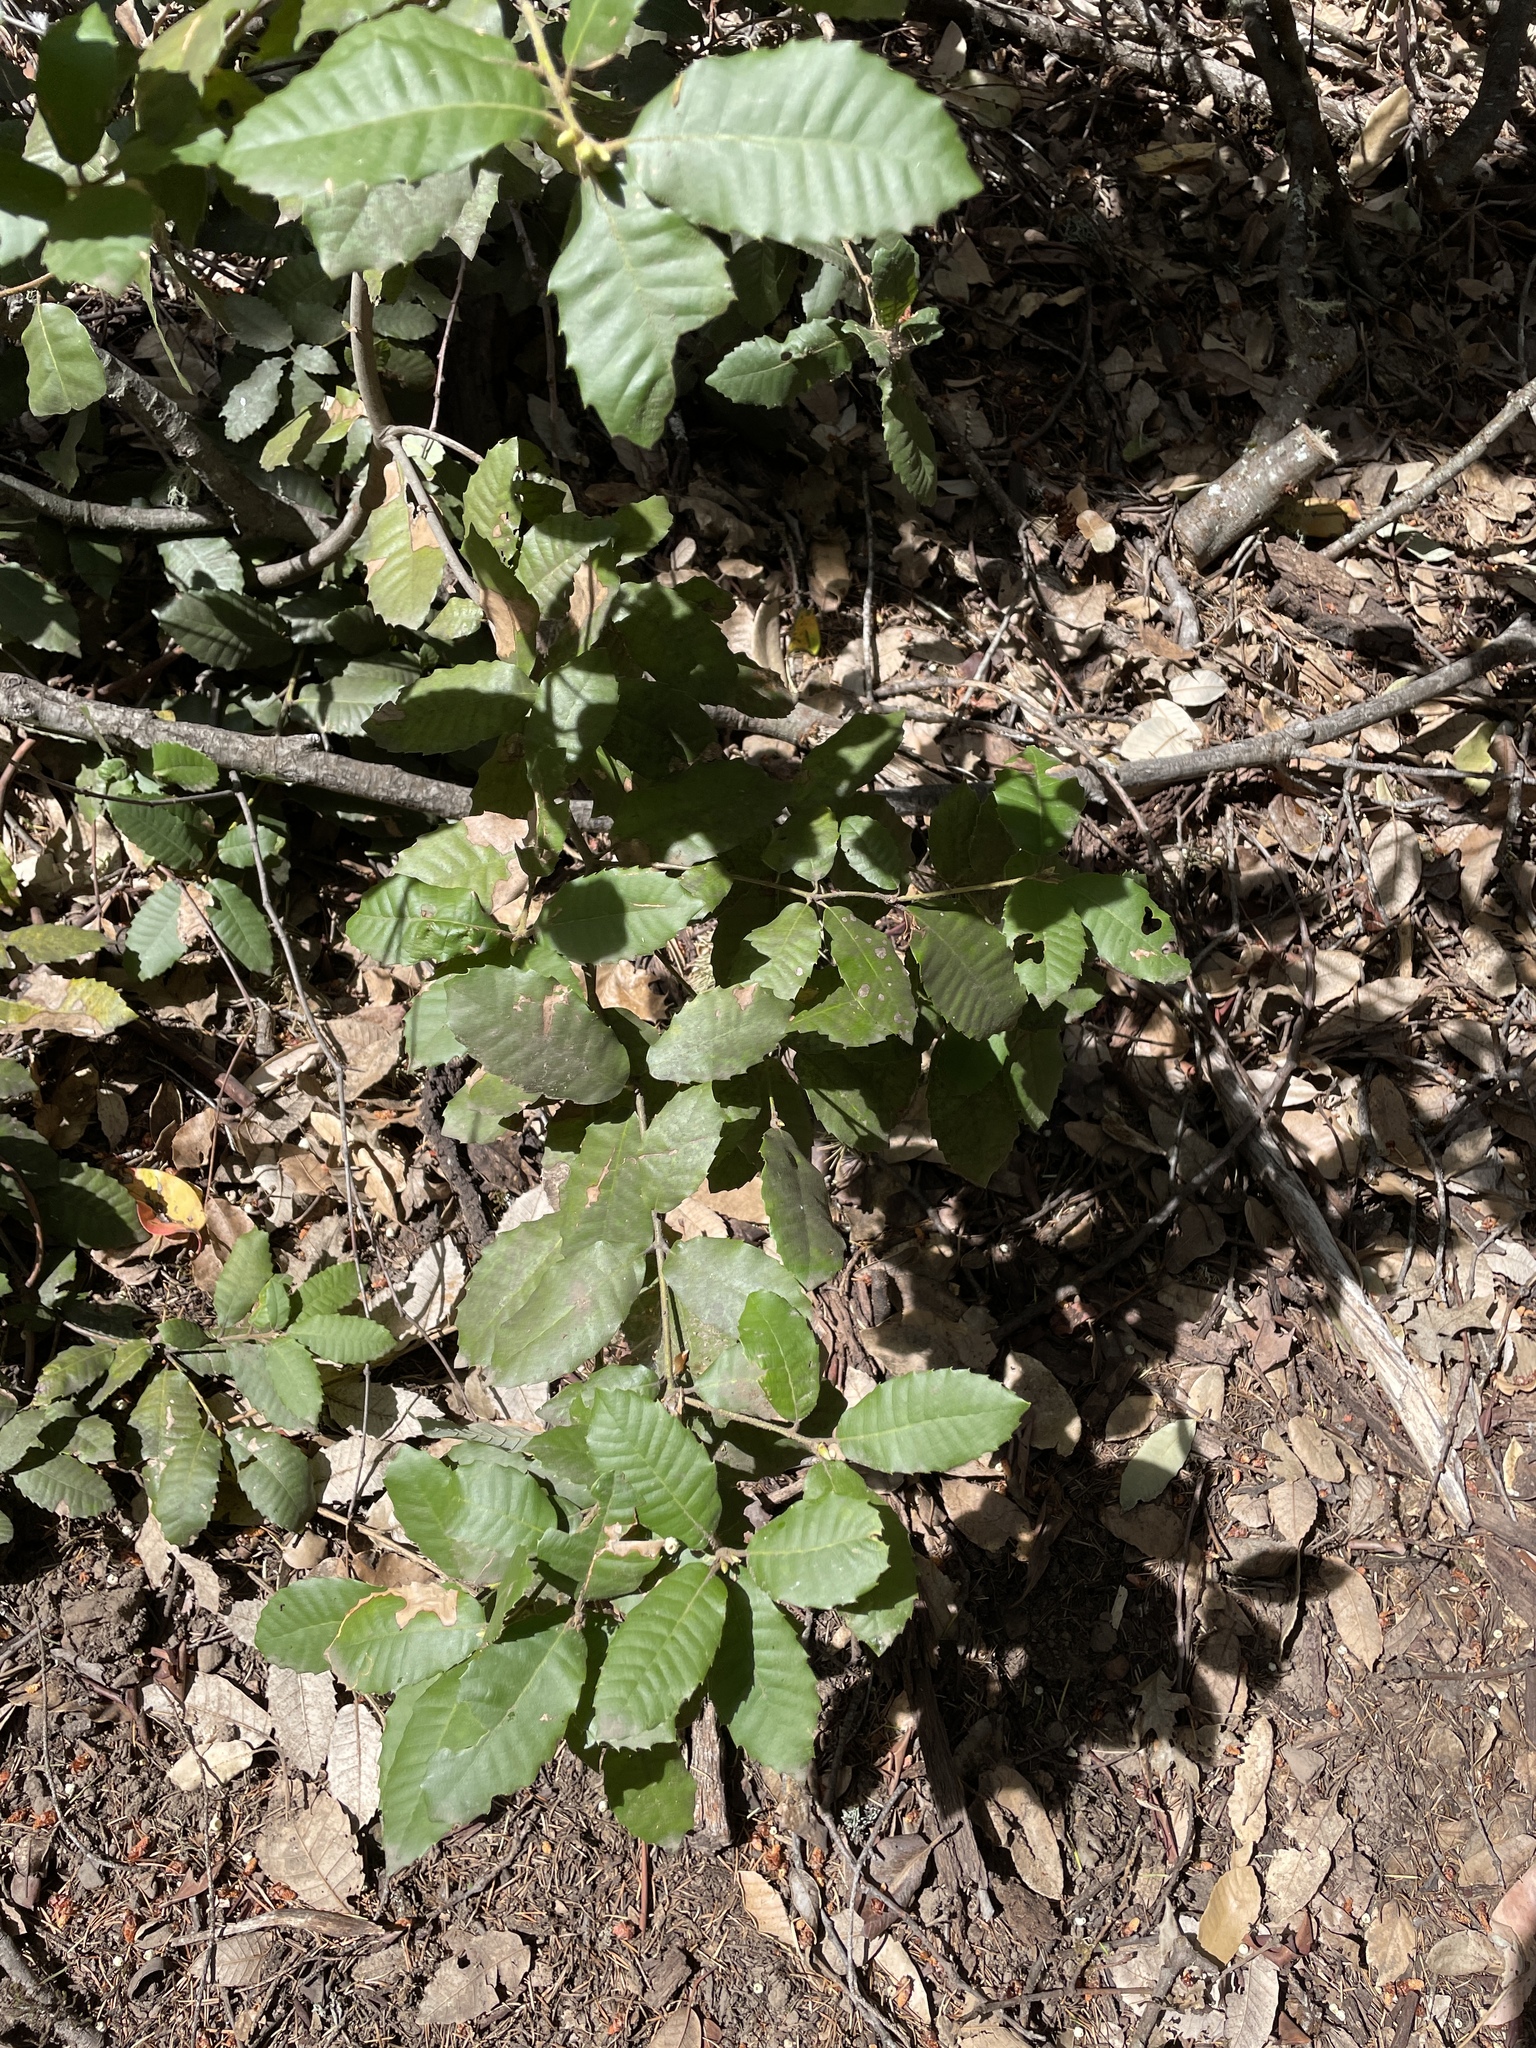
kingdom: Plantae
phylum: Tracheophyta
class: Magnoliopsida
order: Fagales
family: Fagaceae
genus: Notholithocarpus
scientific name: Notholithocarpus densiflorus
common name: Tan bark oak
